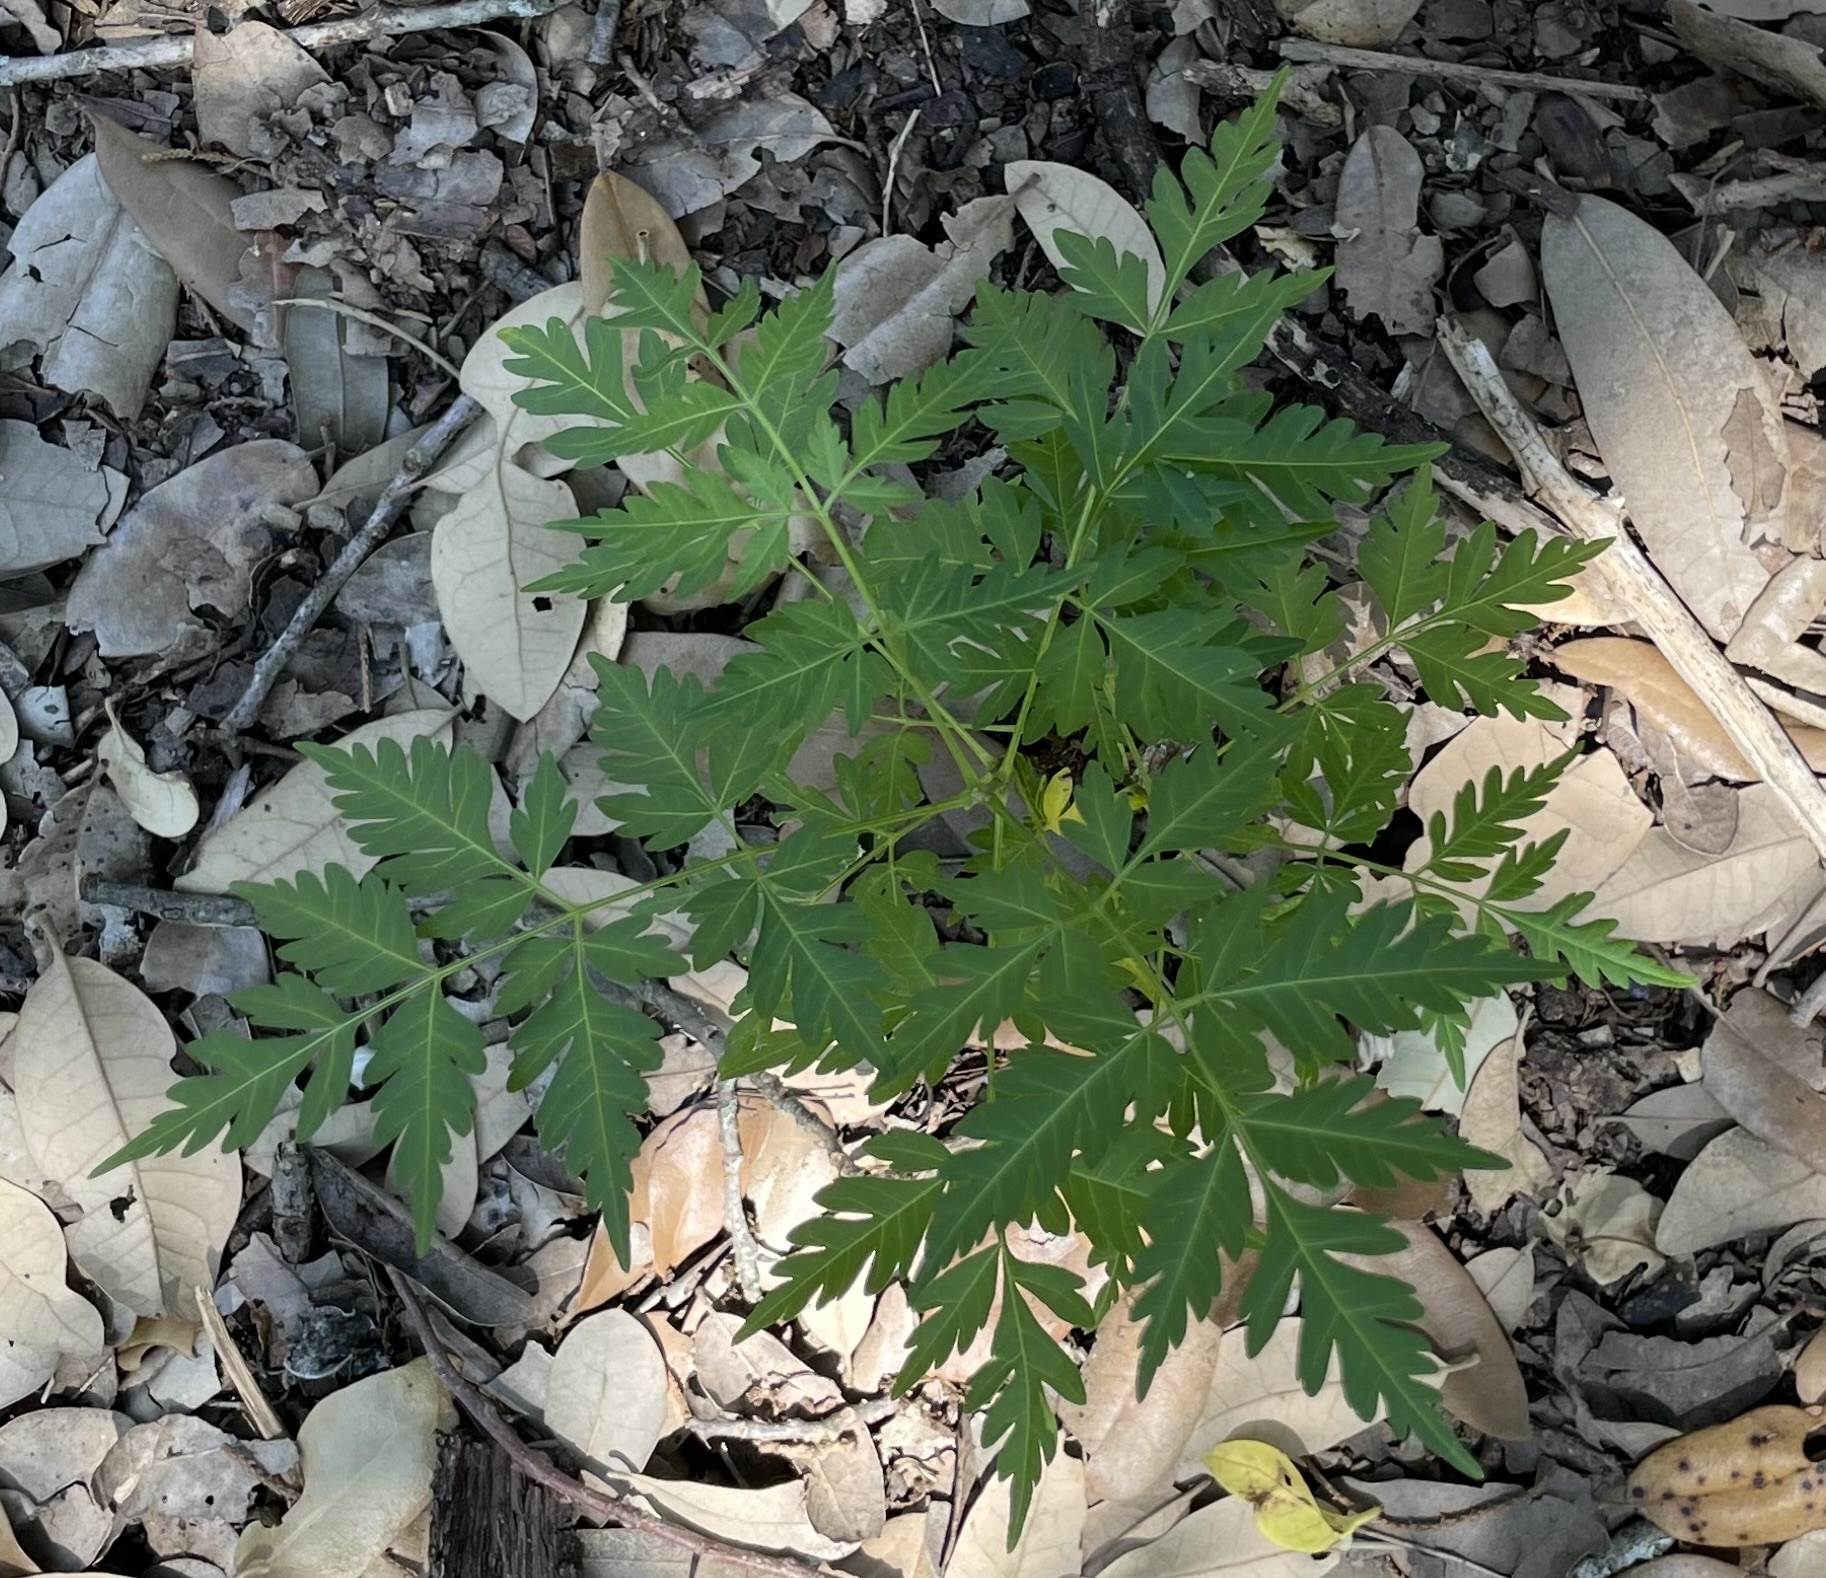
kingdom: Plantae
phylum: Tracheophyta
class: Magnoliopsida
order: Sapindales
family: Meliaceae
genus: Melia
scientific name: Melia azedarach
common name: Chinaberrytree
